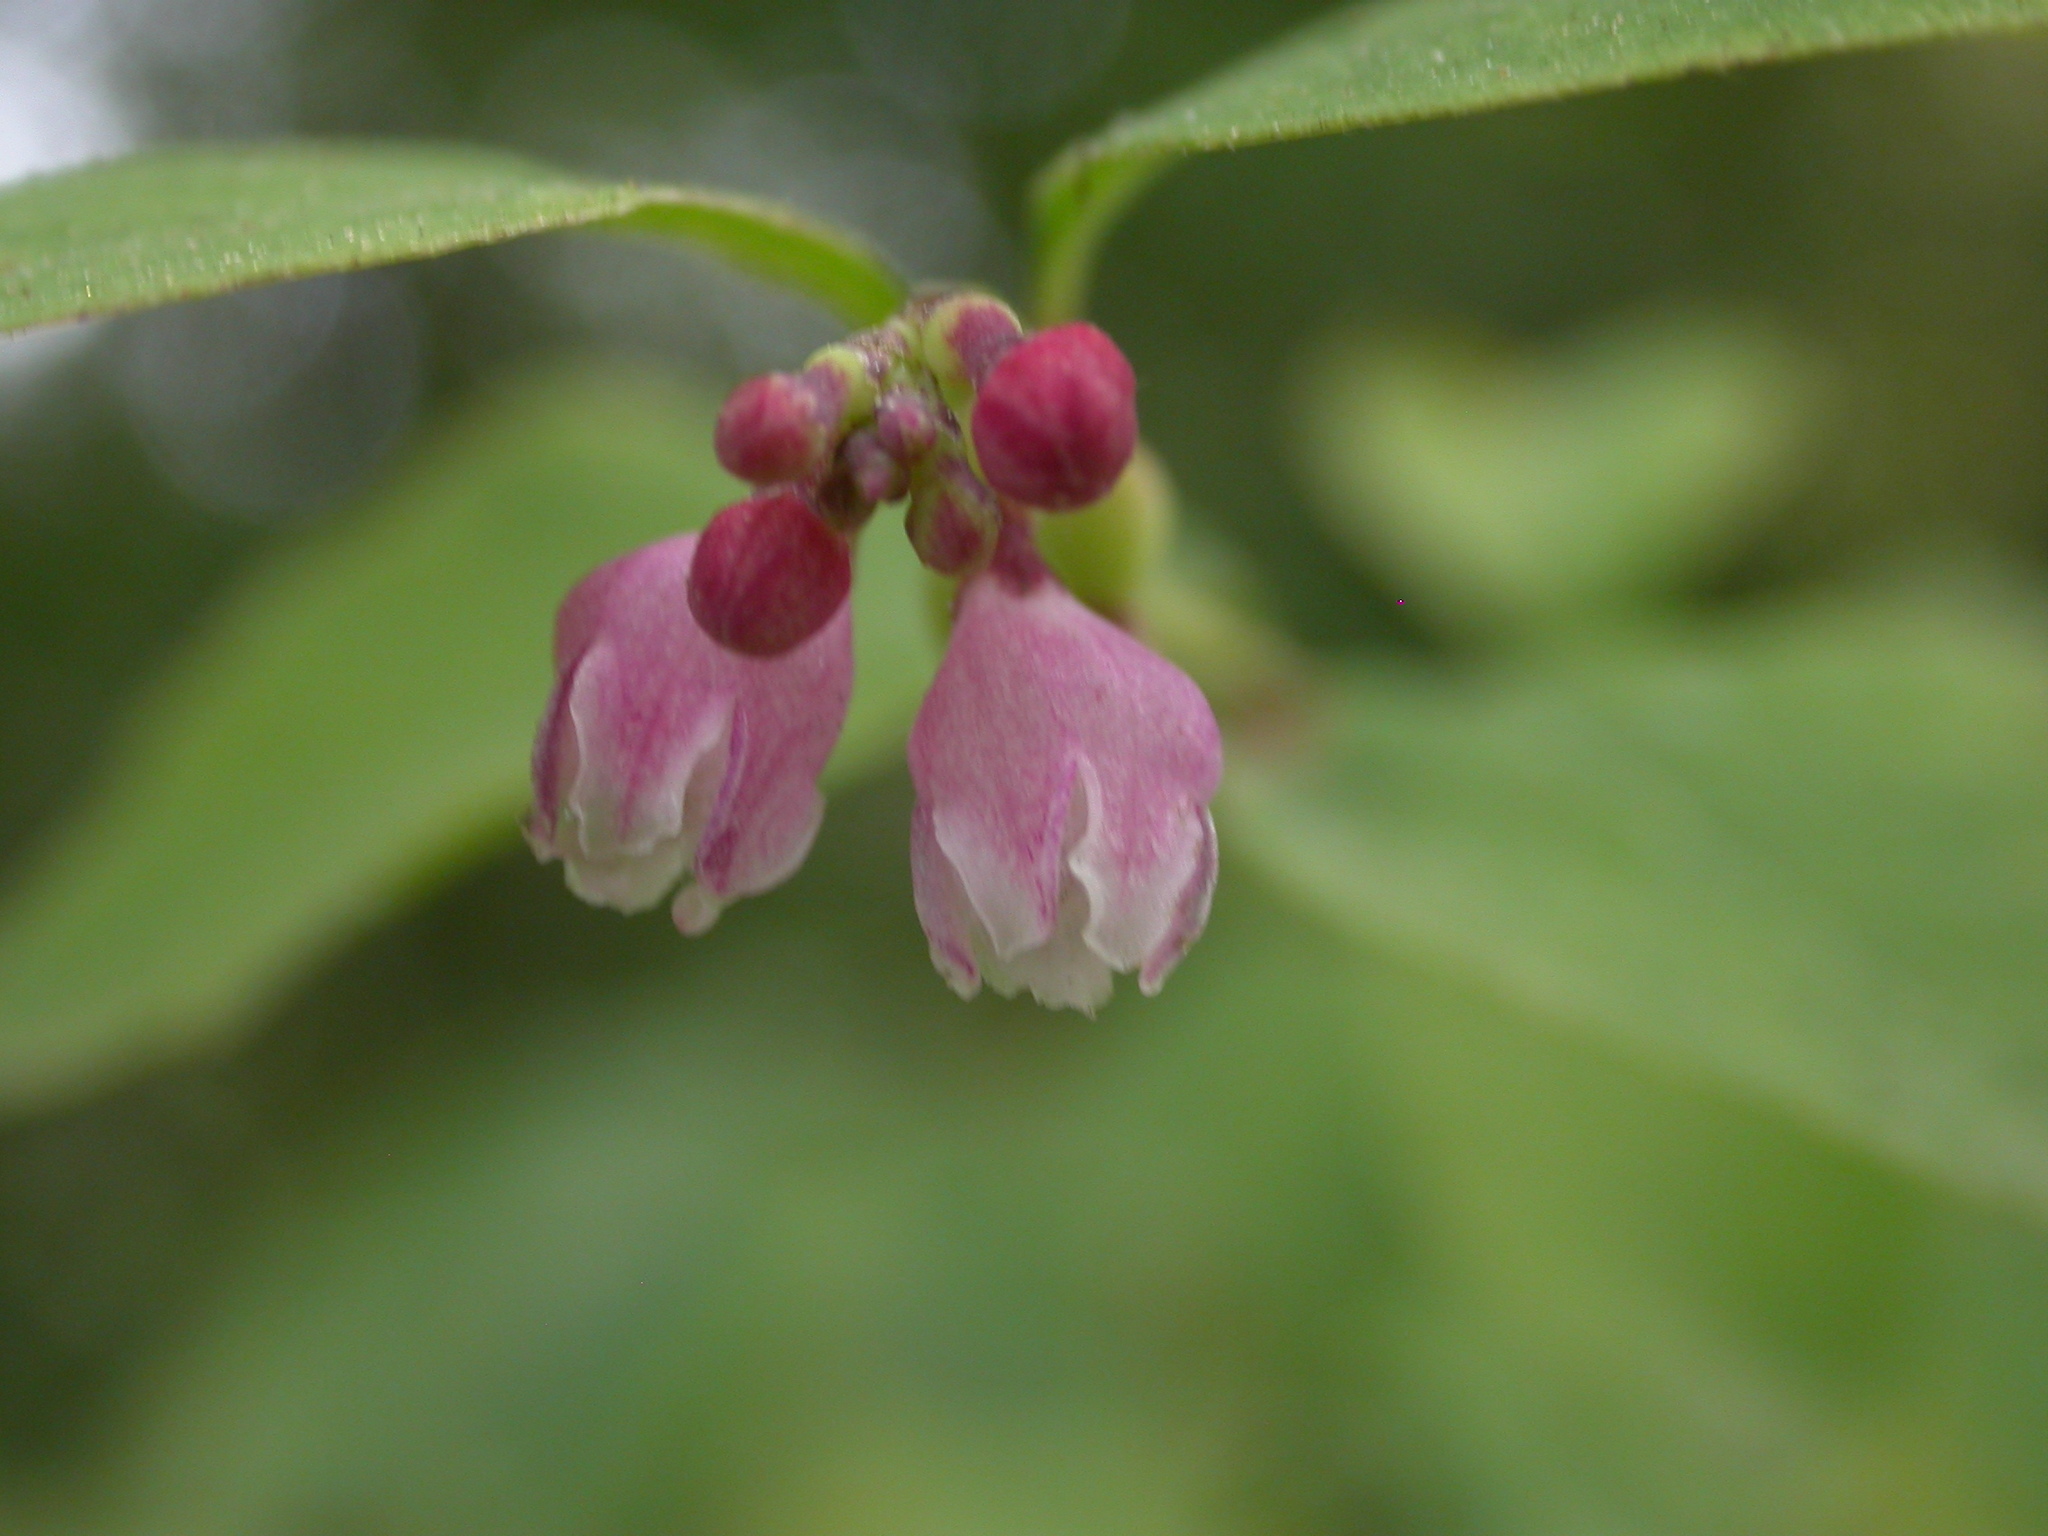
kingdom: Plantae
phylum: Tracheophyta
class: Magnoliopsida
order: Dipsacales
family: Caprifoliaceae
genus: Symphoricarpos
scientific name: Symphoricarpos albus
